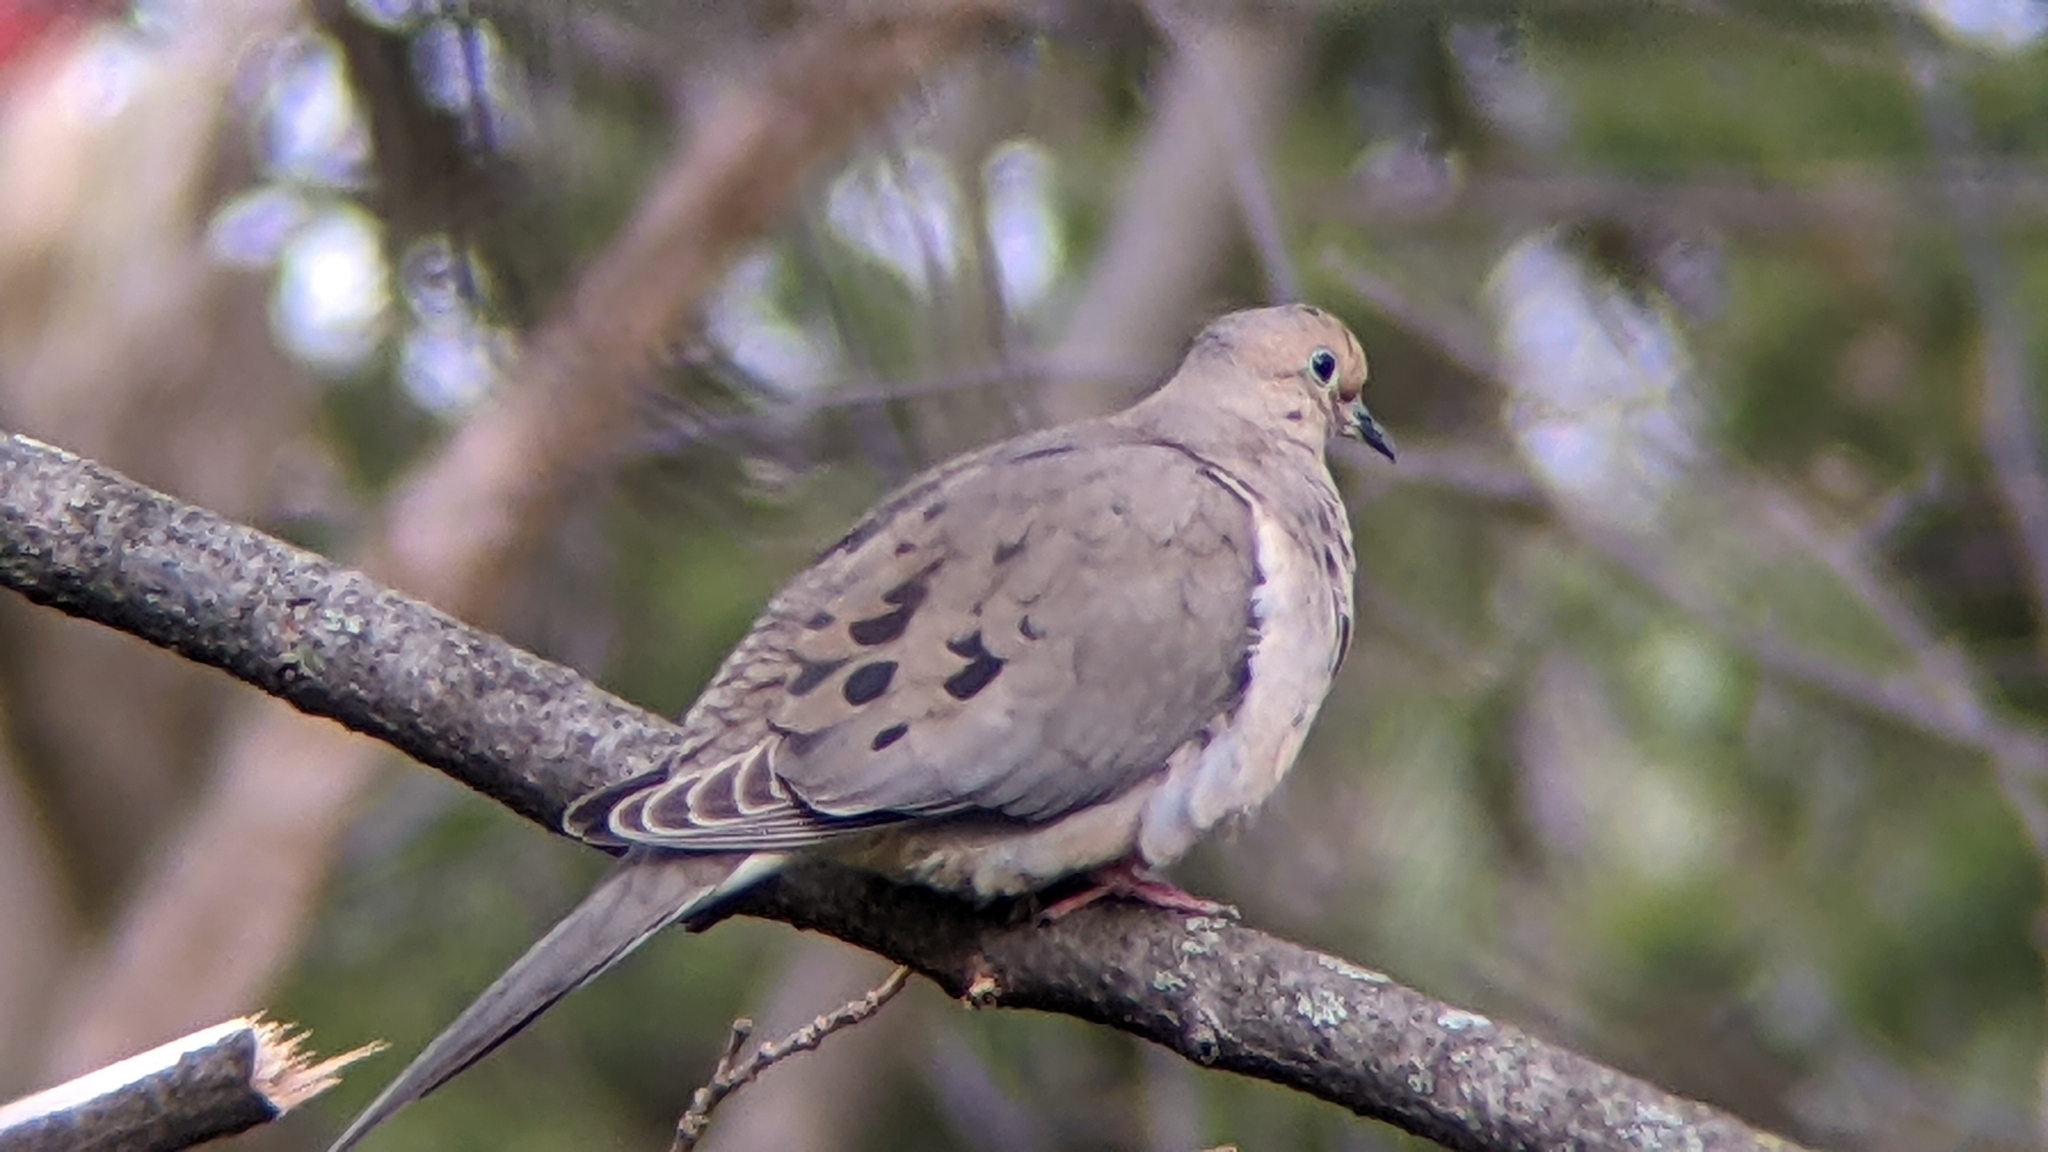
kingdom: Animalia
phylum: Chordata
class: Aves
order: Columbiformes
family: Columbidae
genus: Zenaida
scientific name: Zenaida macroura
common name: Mourning dove
